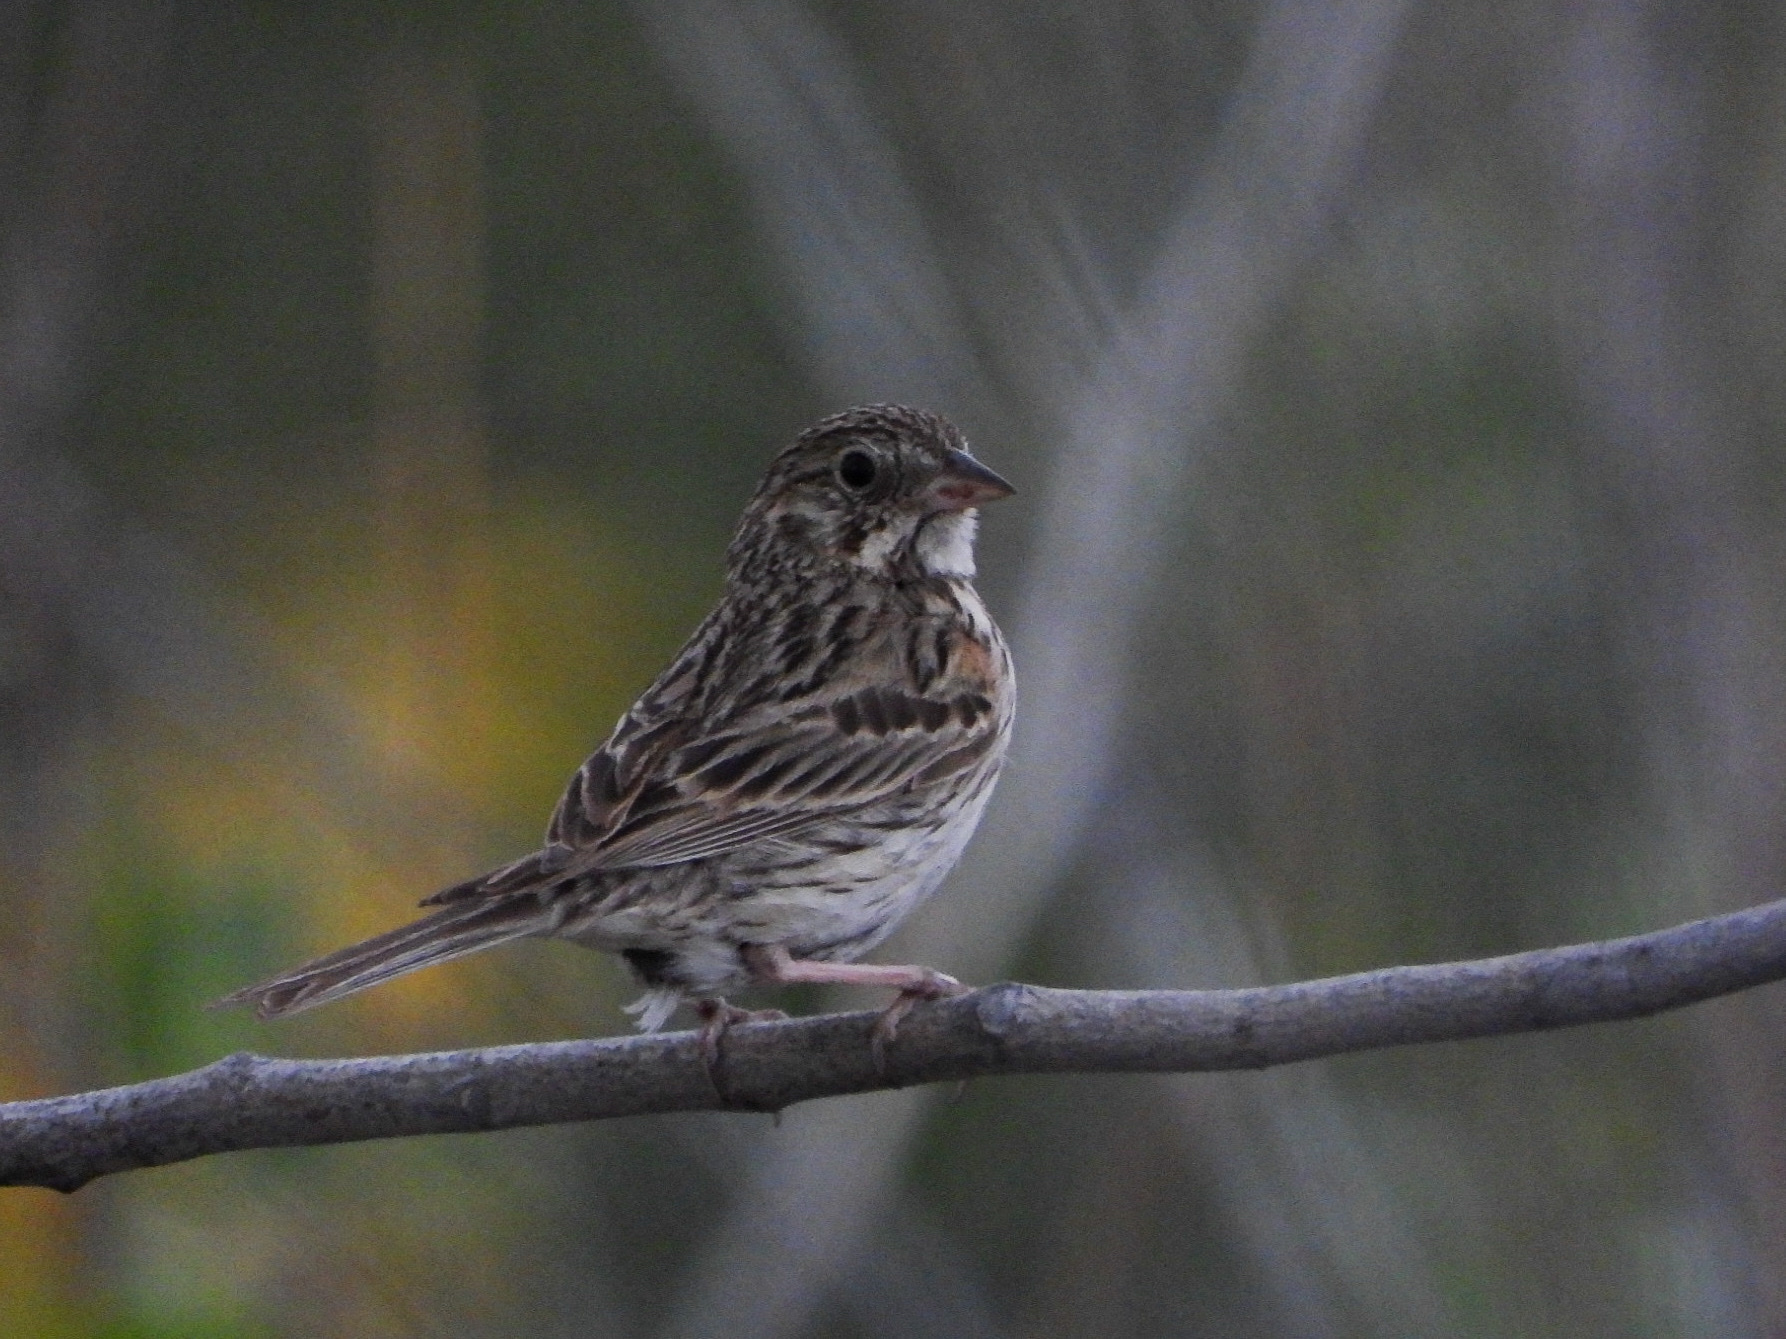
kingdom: Animalia
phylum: Chordata
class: Aves
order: Passeriformes
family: Passerellidae
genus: Pooecetes
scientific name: Pooecetes gramineus
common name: Vesper sparrow
